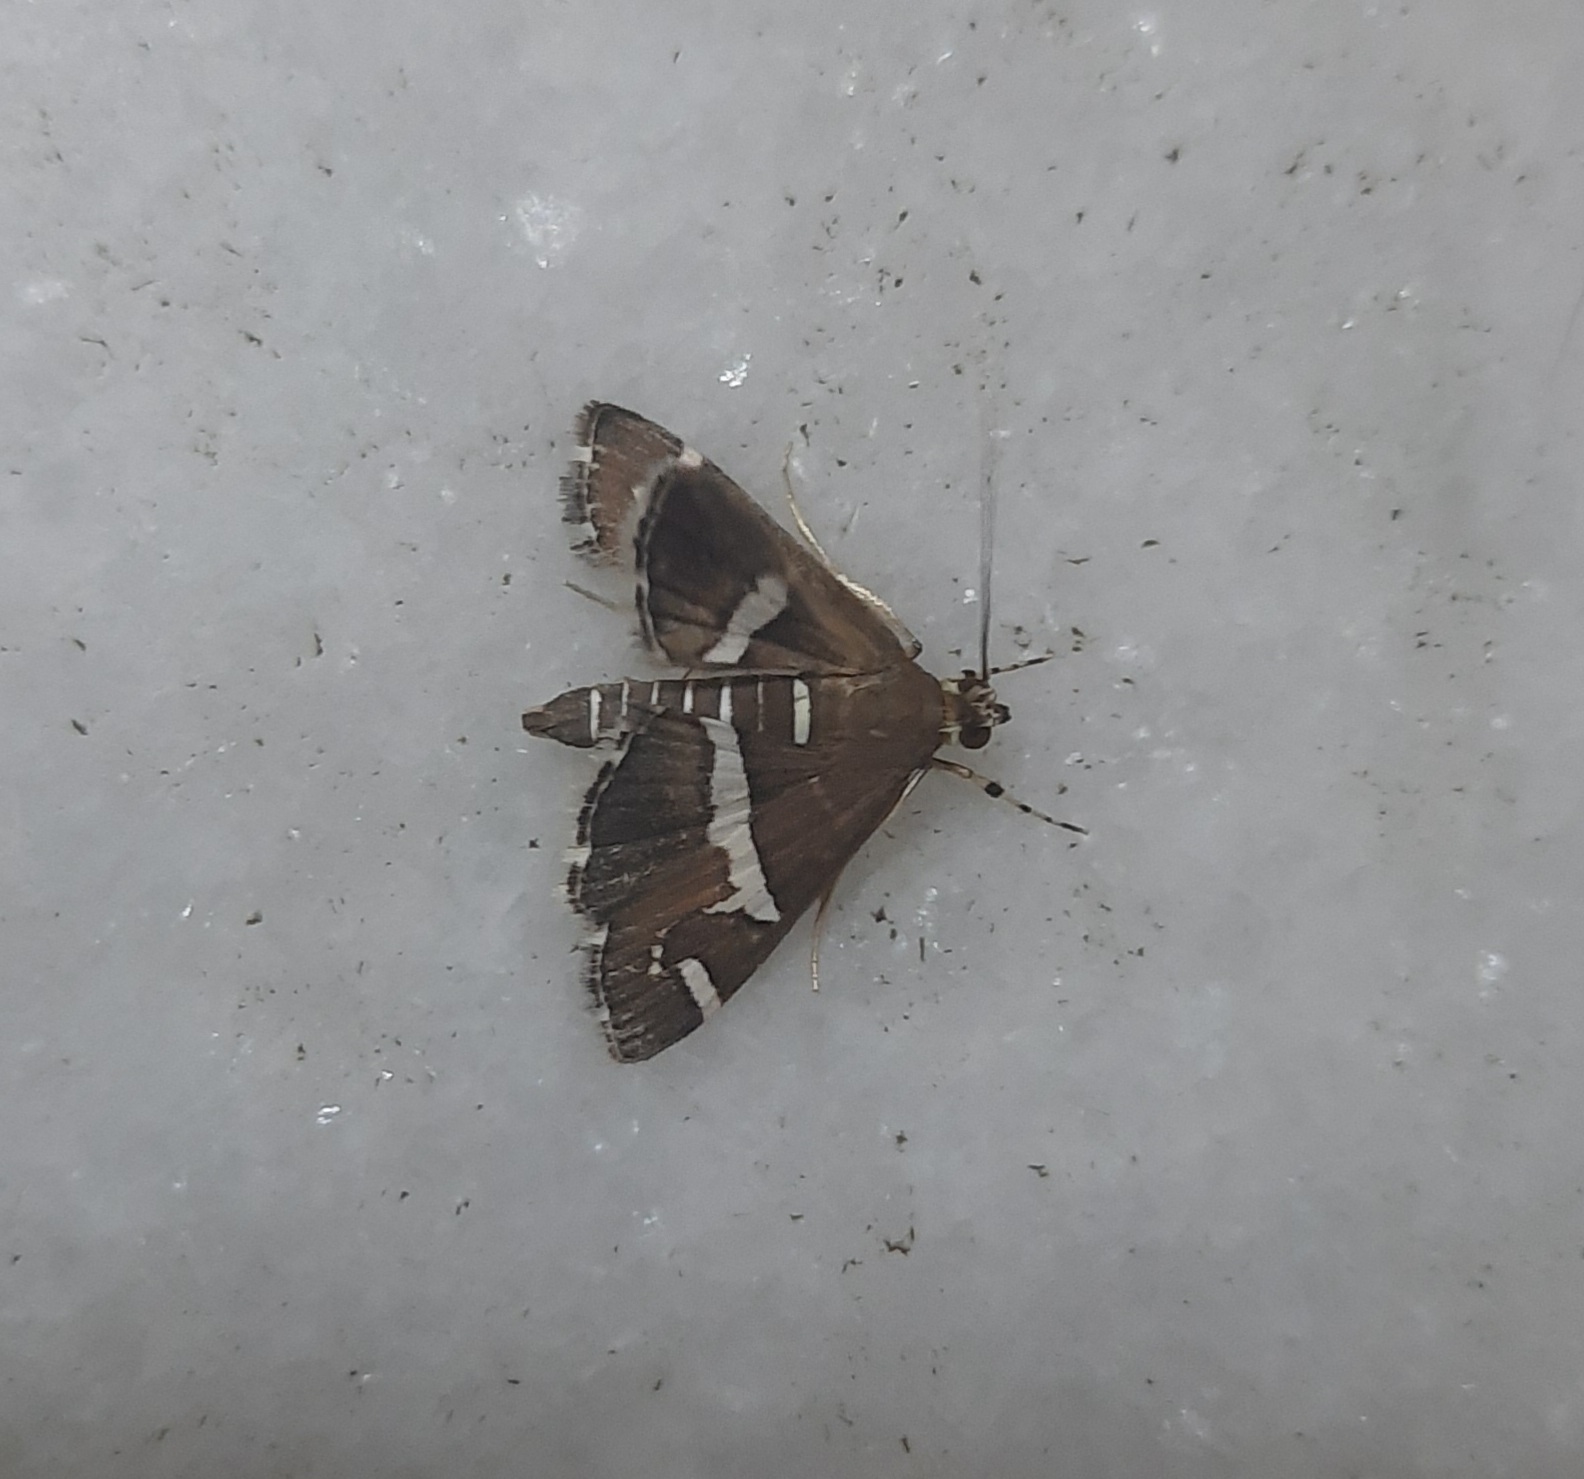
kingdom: Animalia
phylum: Arthropoda
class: Insecta
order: Lepidoptera
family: Crambidae
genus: Spoladea
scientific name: Spoladea recurvalis
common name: Beet webworm moth
